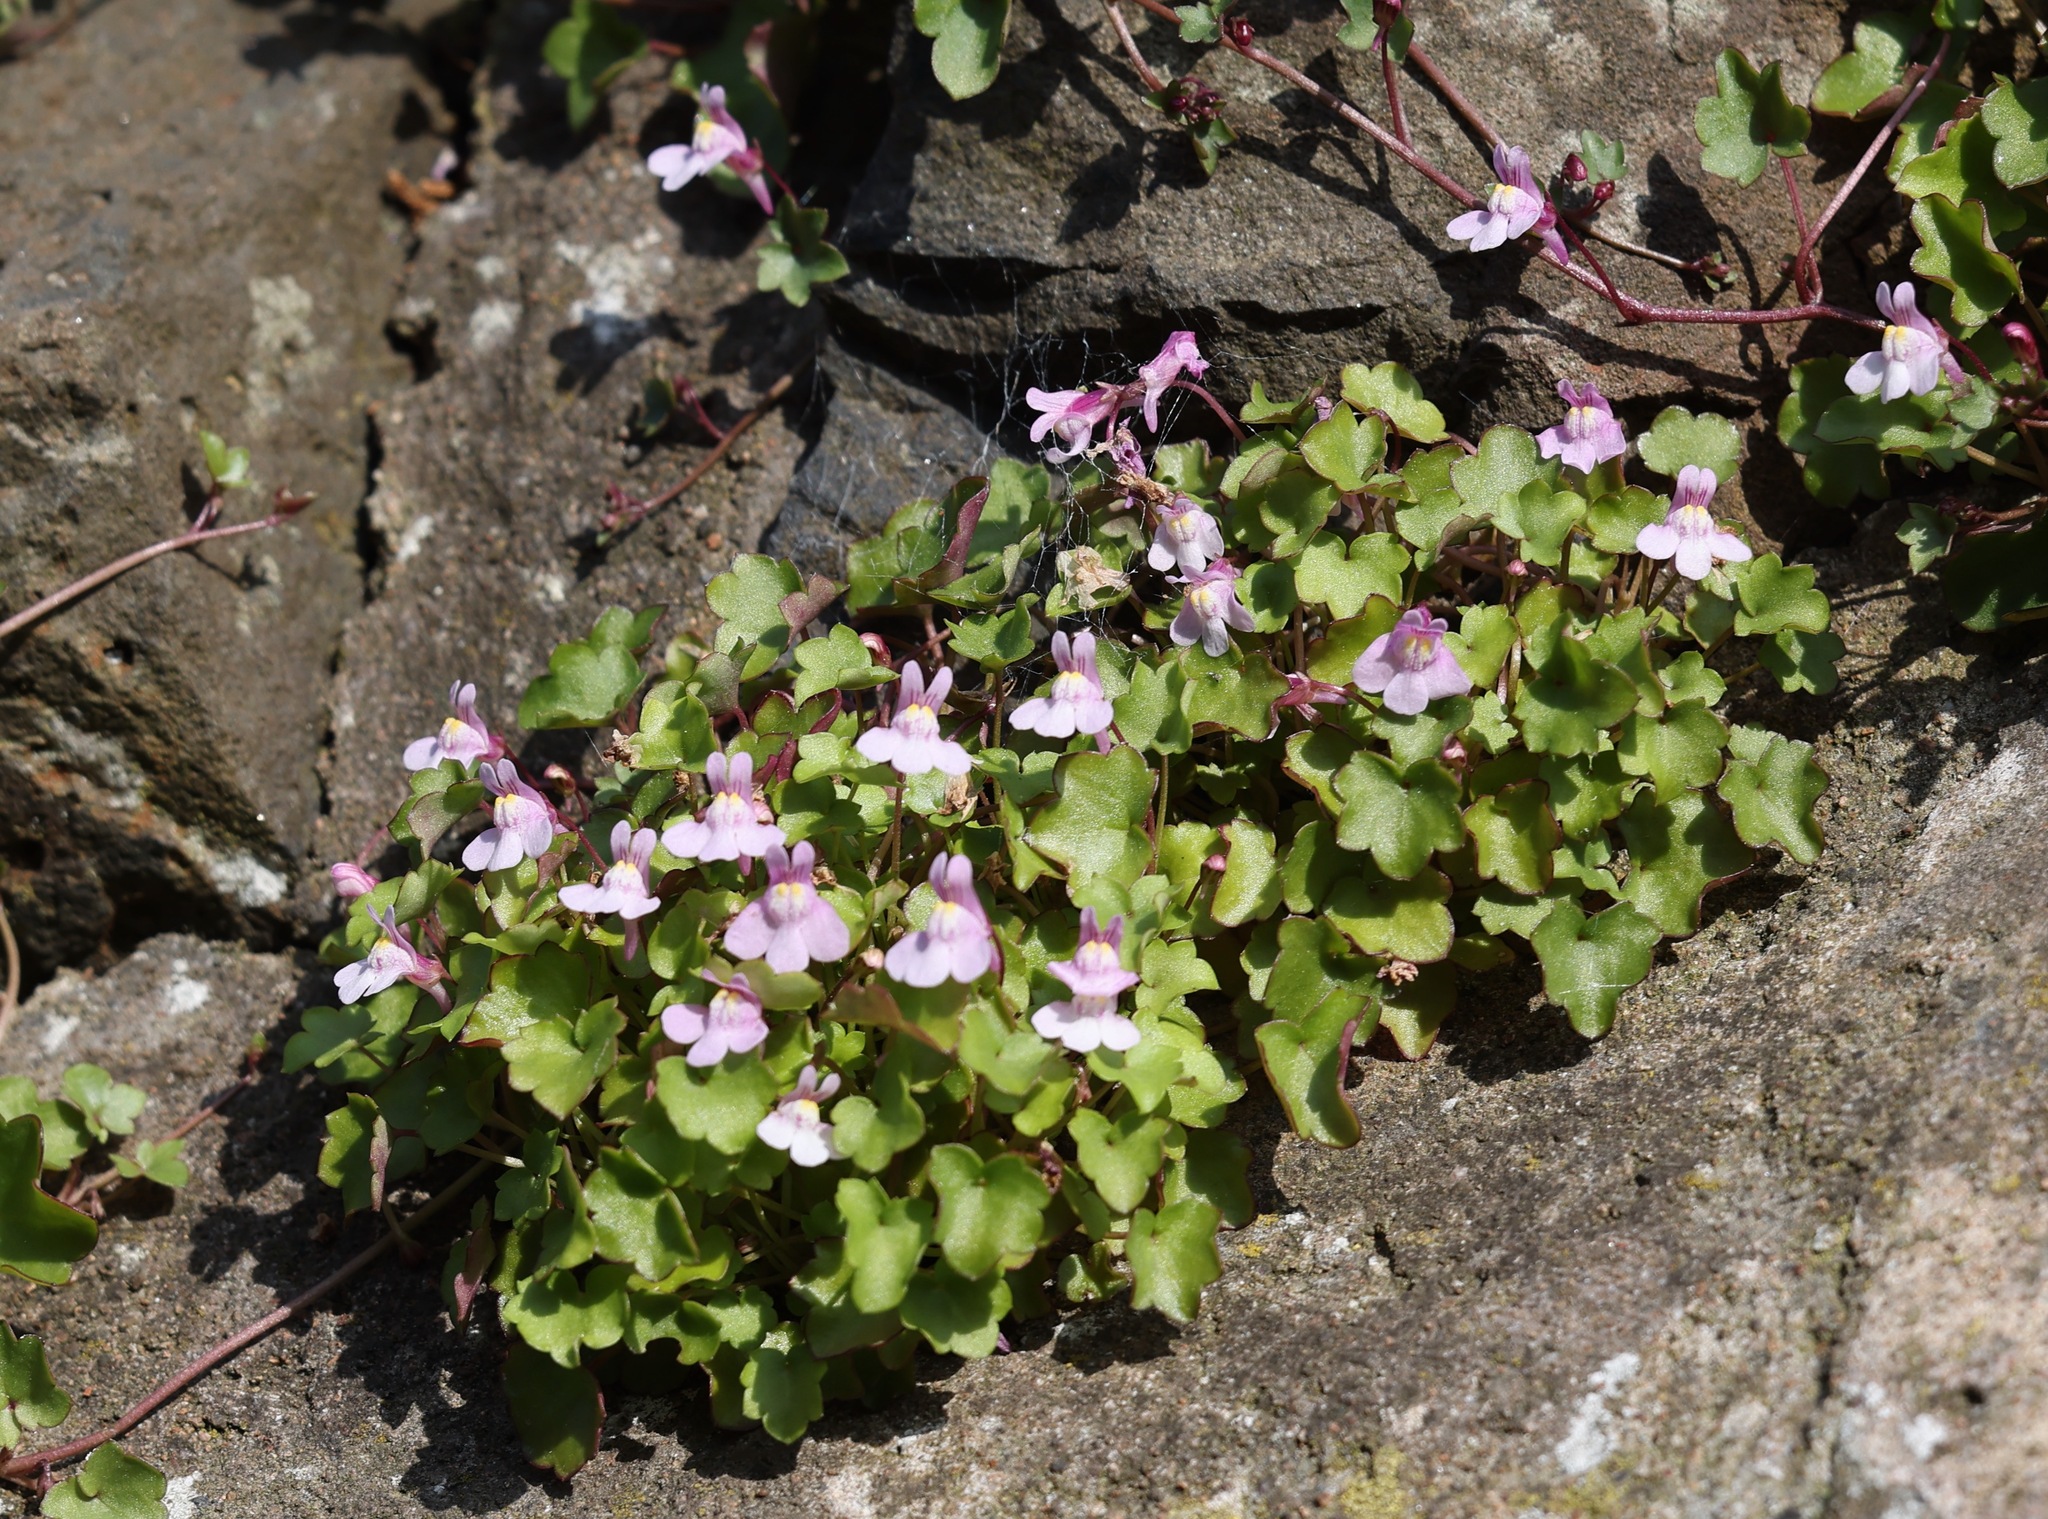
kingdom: Plantae
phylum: Tracheophyta
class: Magnoliopsida
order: Lamiales
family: Plantaginaceae
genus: Cymbalaria
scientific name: Cymbalaria muralis
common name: Ivy-leaved toadflax
